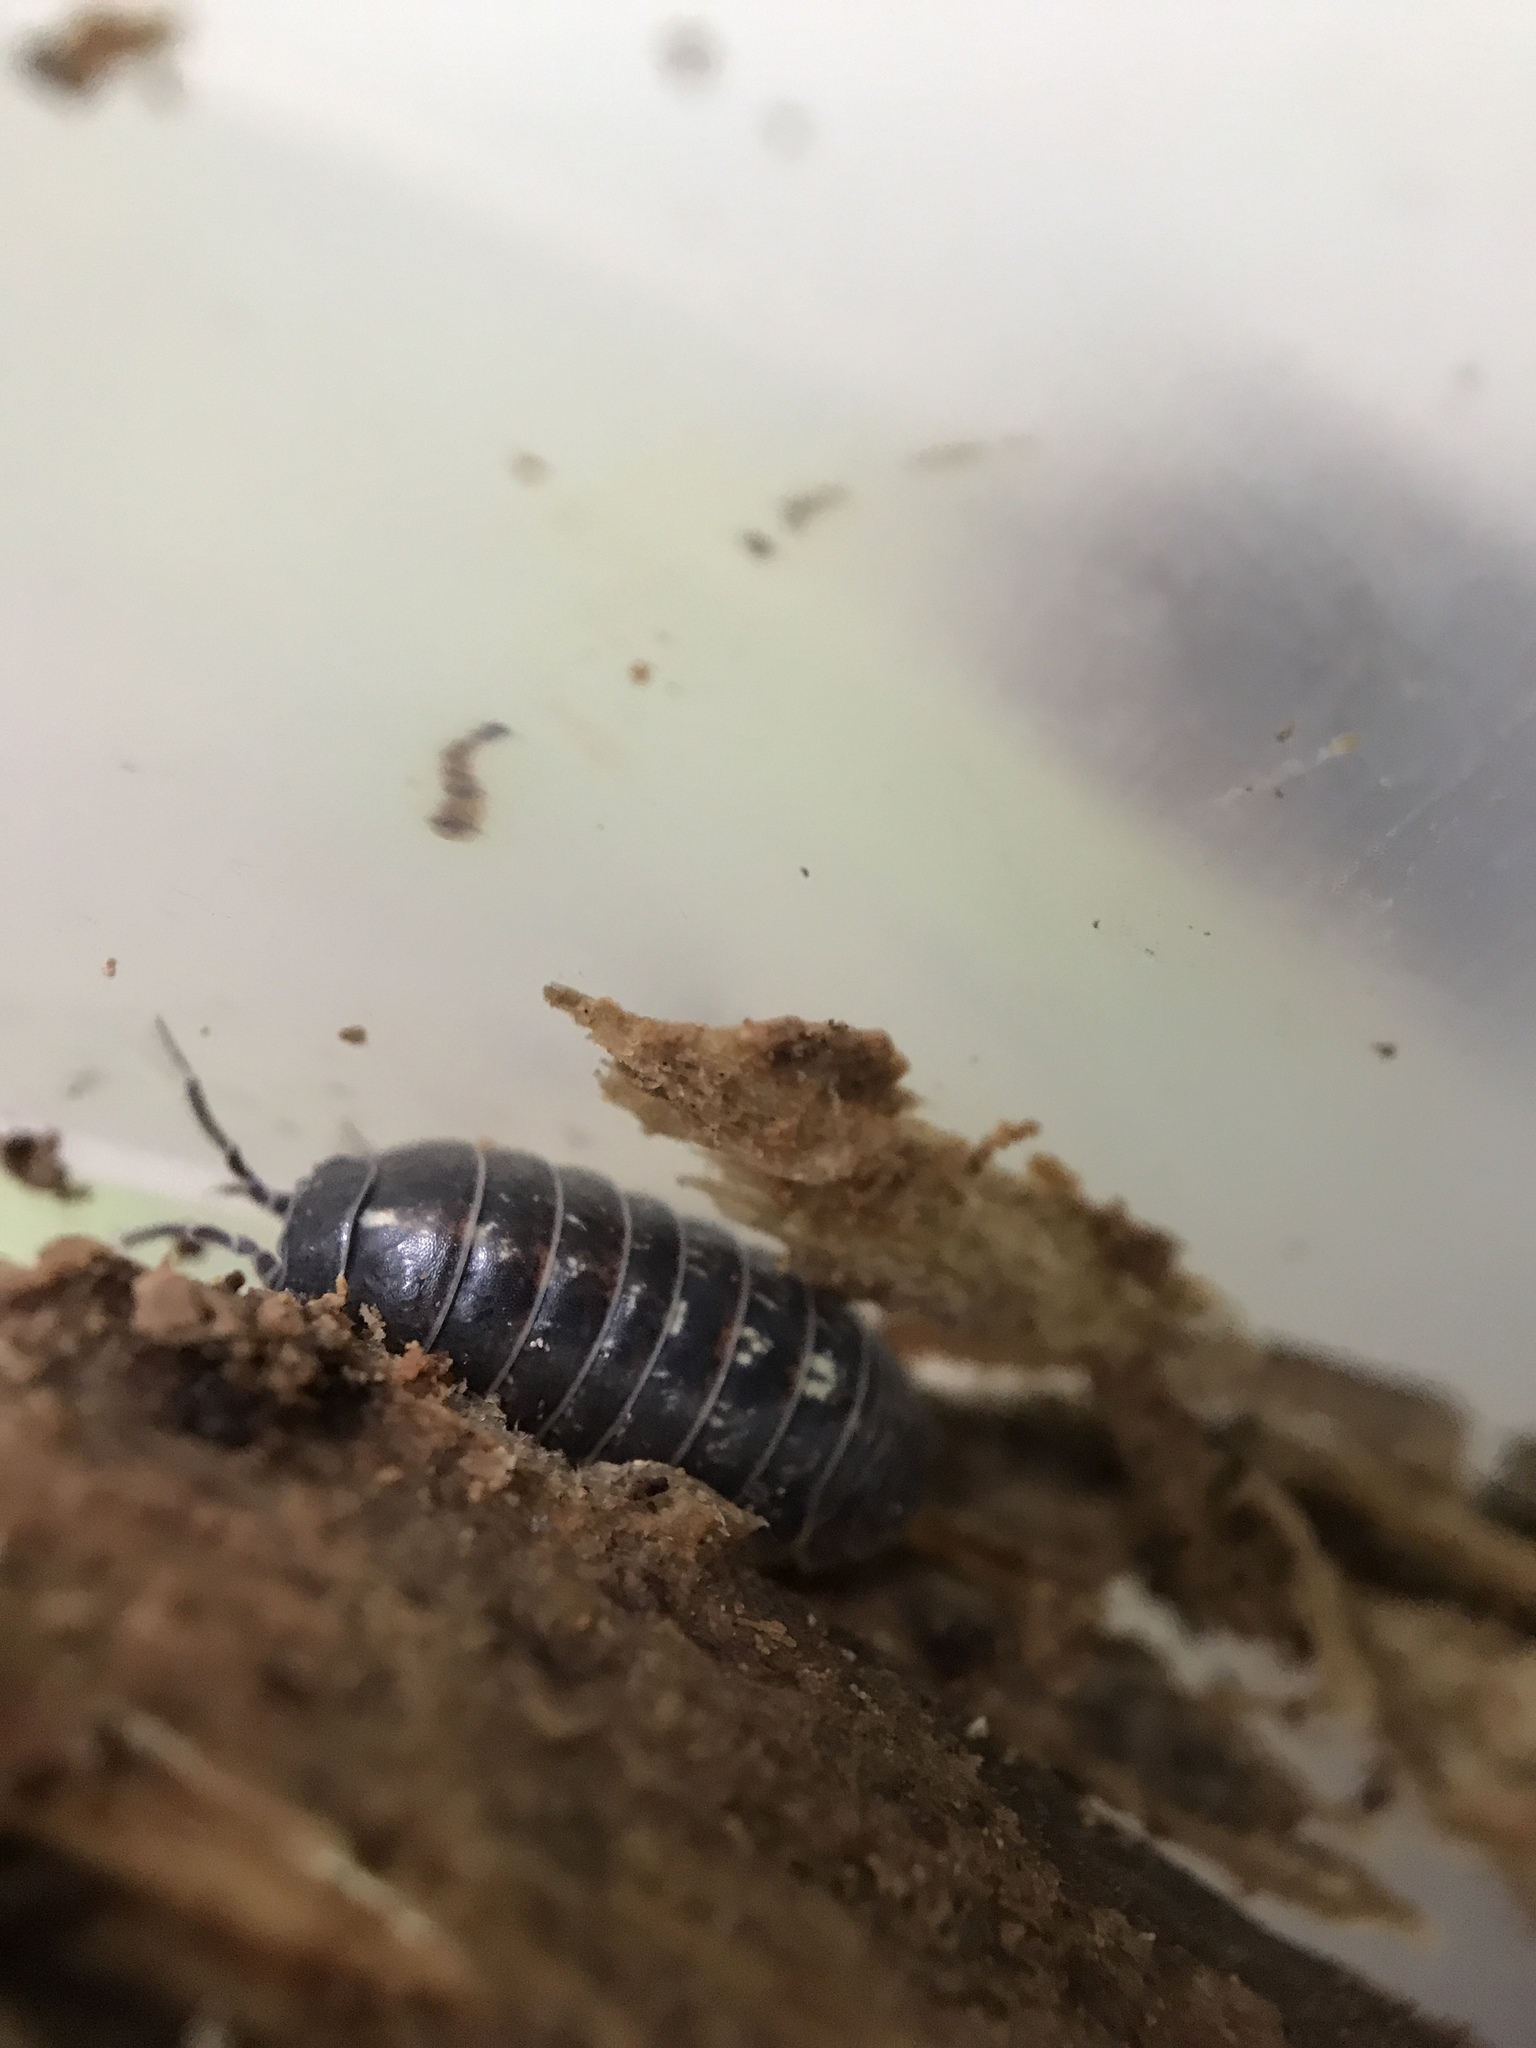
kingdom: Animalia
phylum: Arthropoda
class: Malacostraca
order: Isopoda
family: Armadillidiidae
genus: Armadillidium
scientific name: Armadillidium vulgare
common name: Common pill woodlouse
